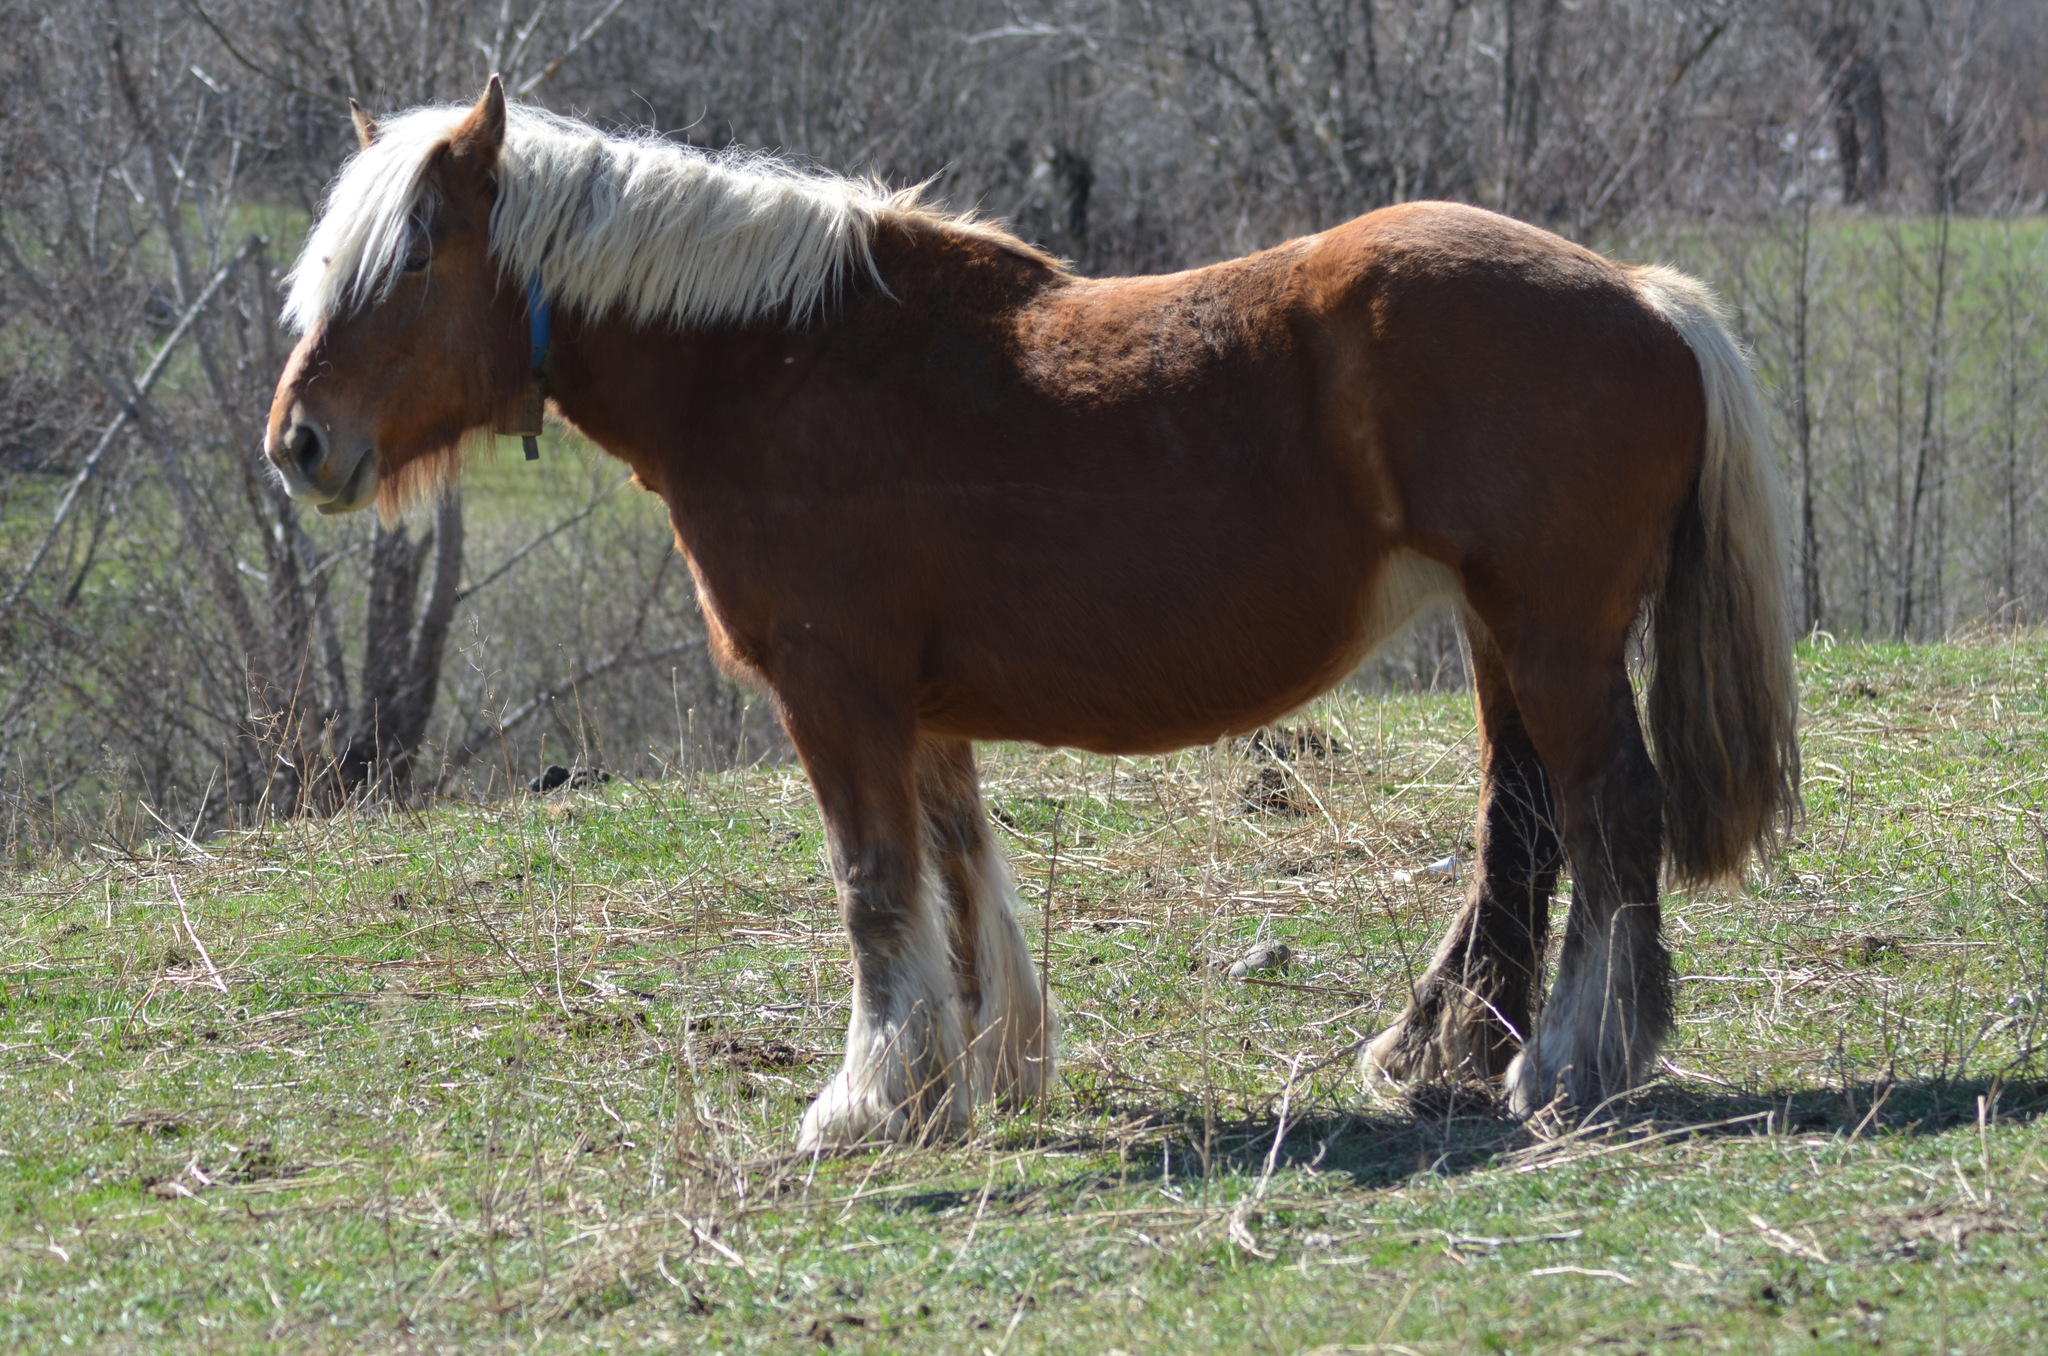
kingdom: Animalia
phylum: Chordata
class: Mammalia
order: Perissodactyla
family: Equidae
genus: Equus
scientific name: Equus caballus
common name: Horse
